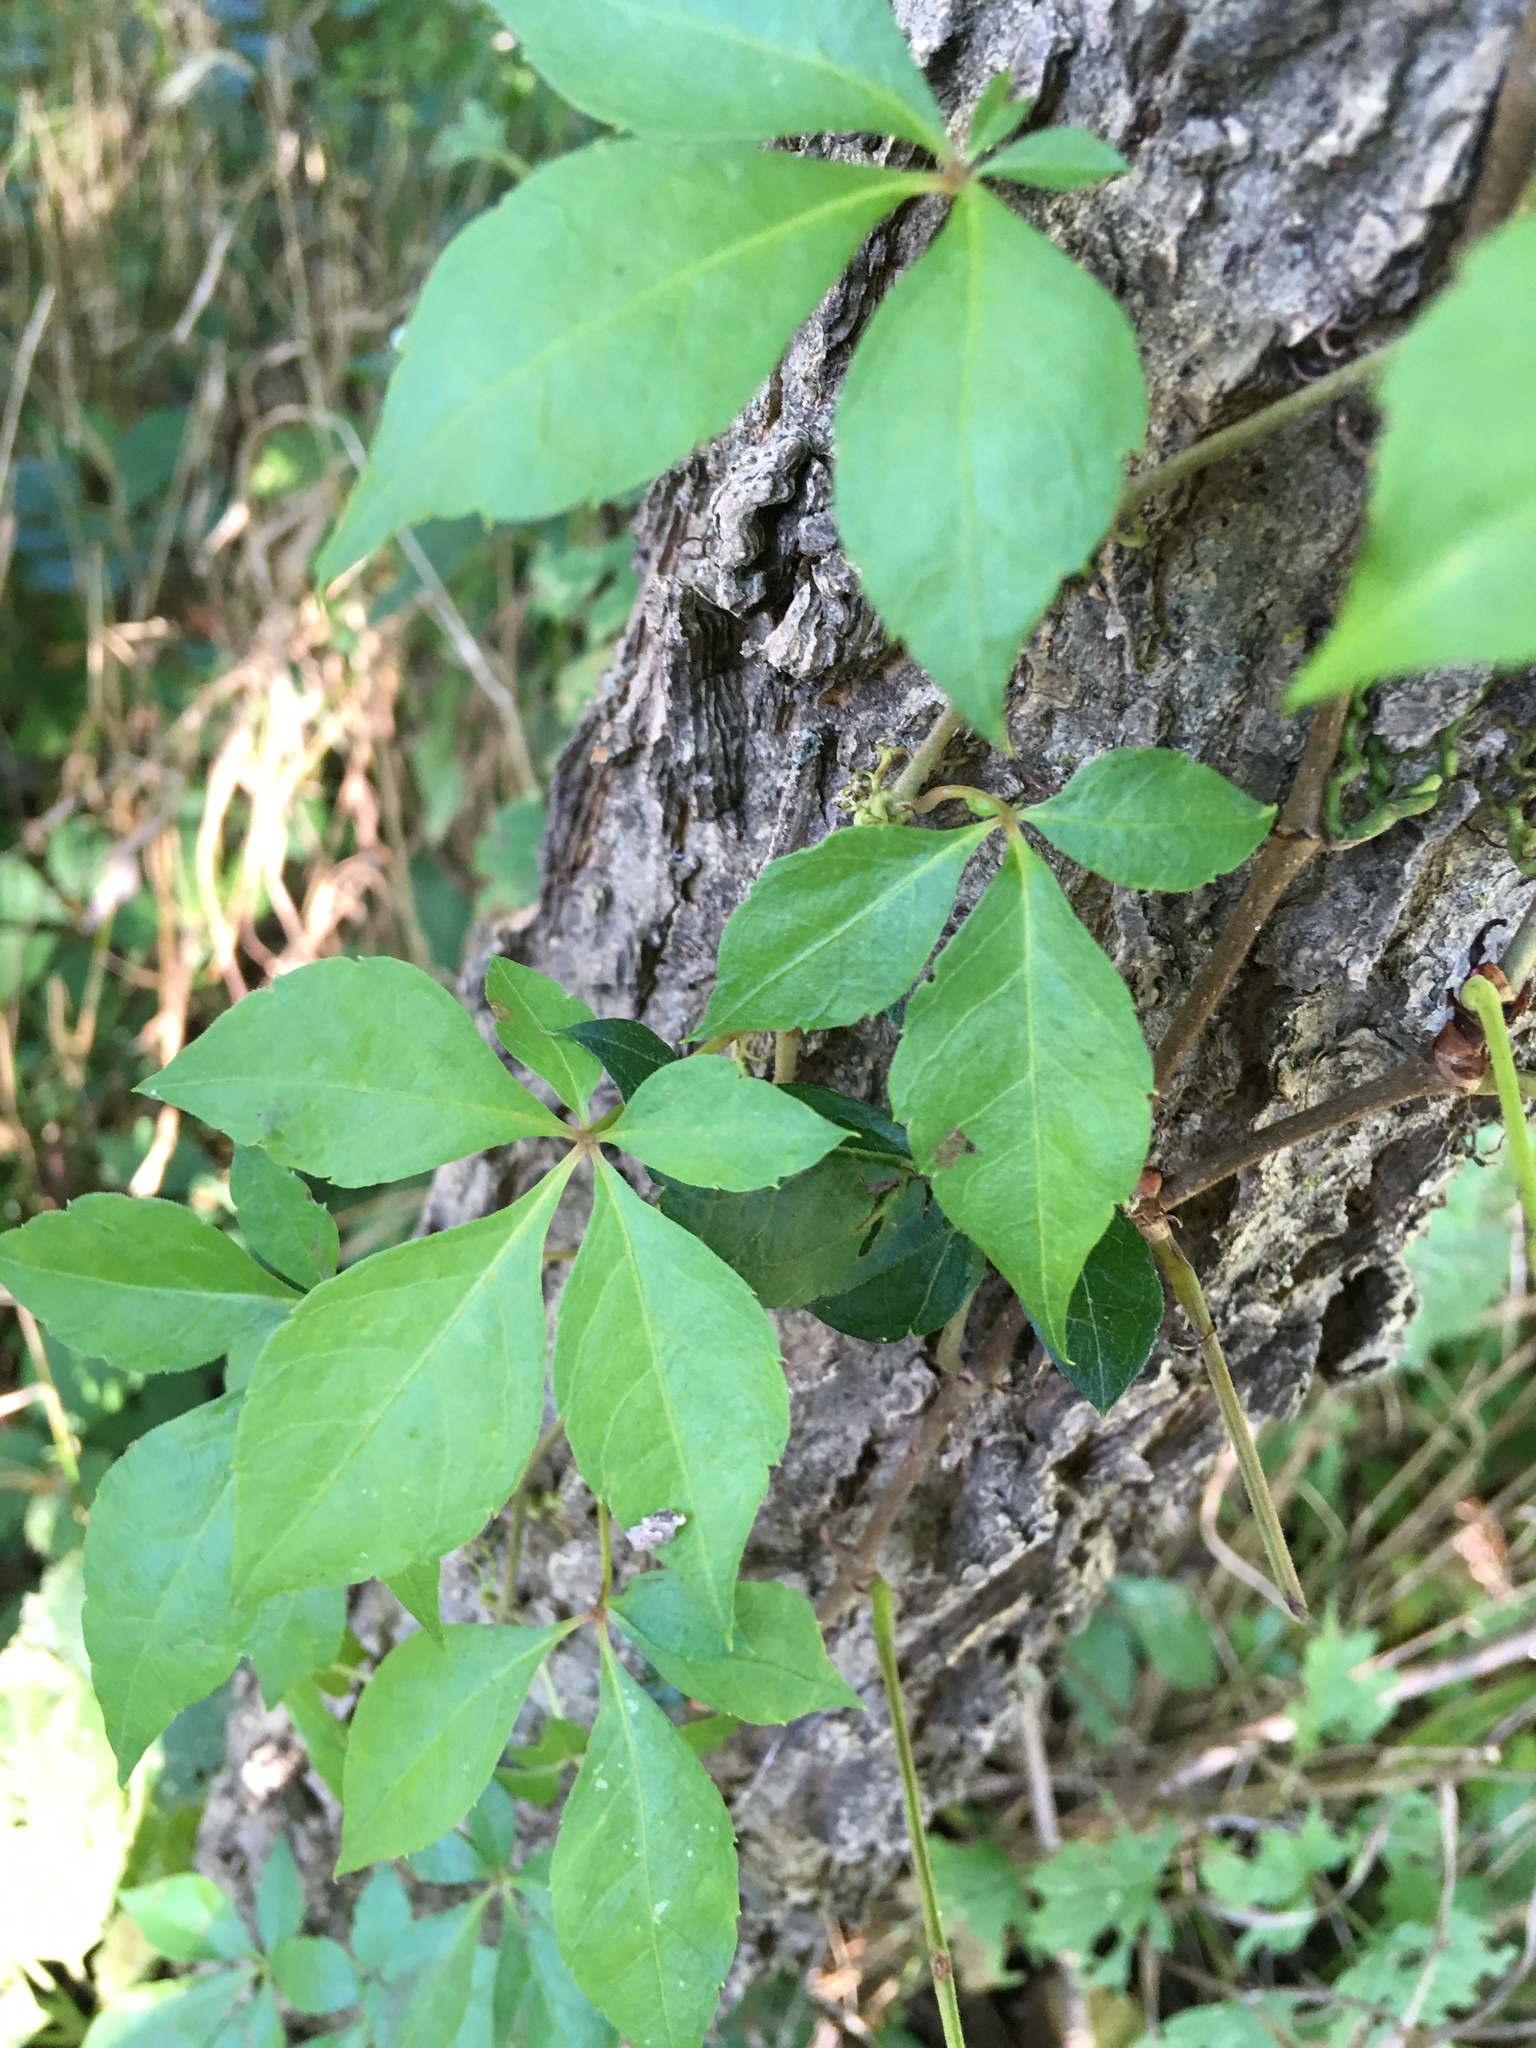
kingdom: Plantae
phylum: Tracheophyta
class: Magnoliopsida
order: Vitales
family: Vitaceae
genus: Parthenocissus
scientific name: Parthenocissus quinquefolia
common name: Virginia-creeper
